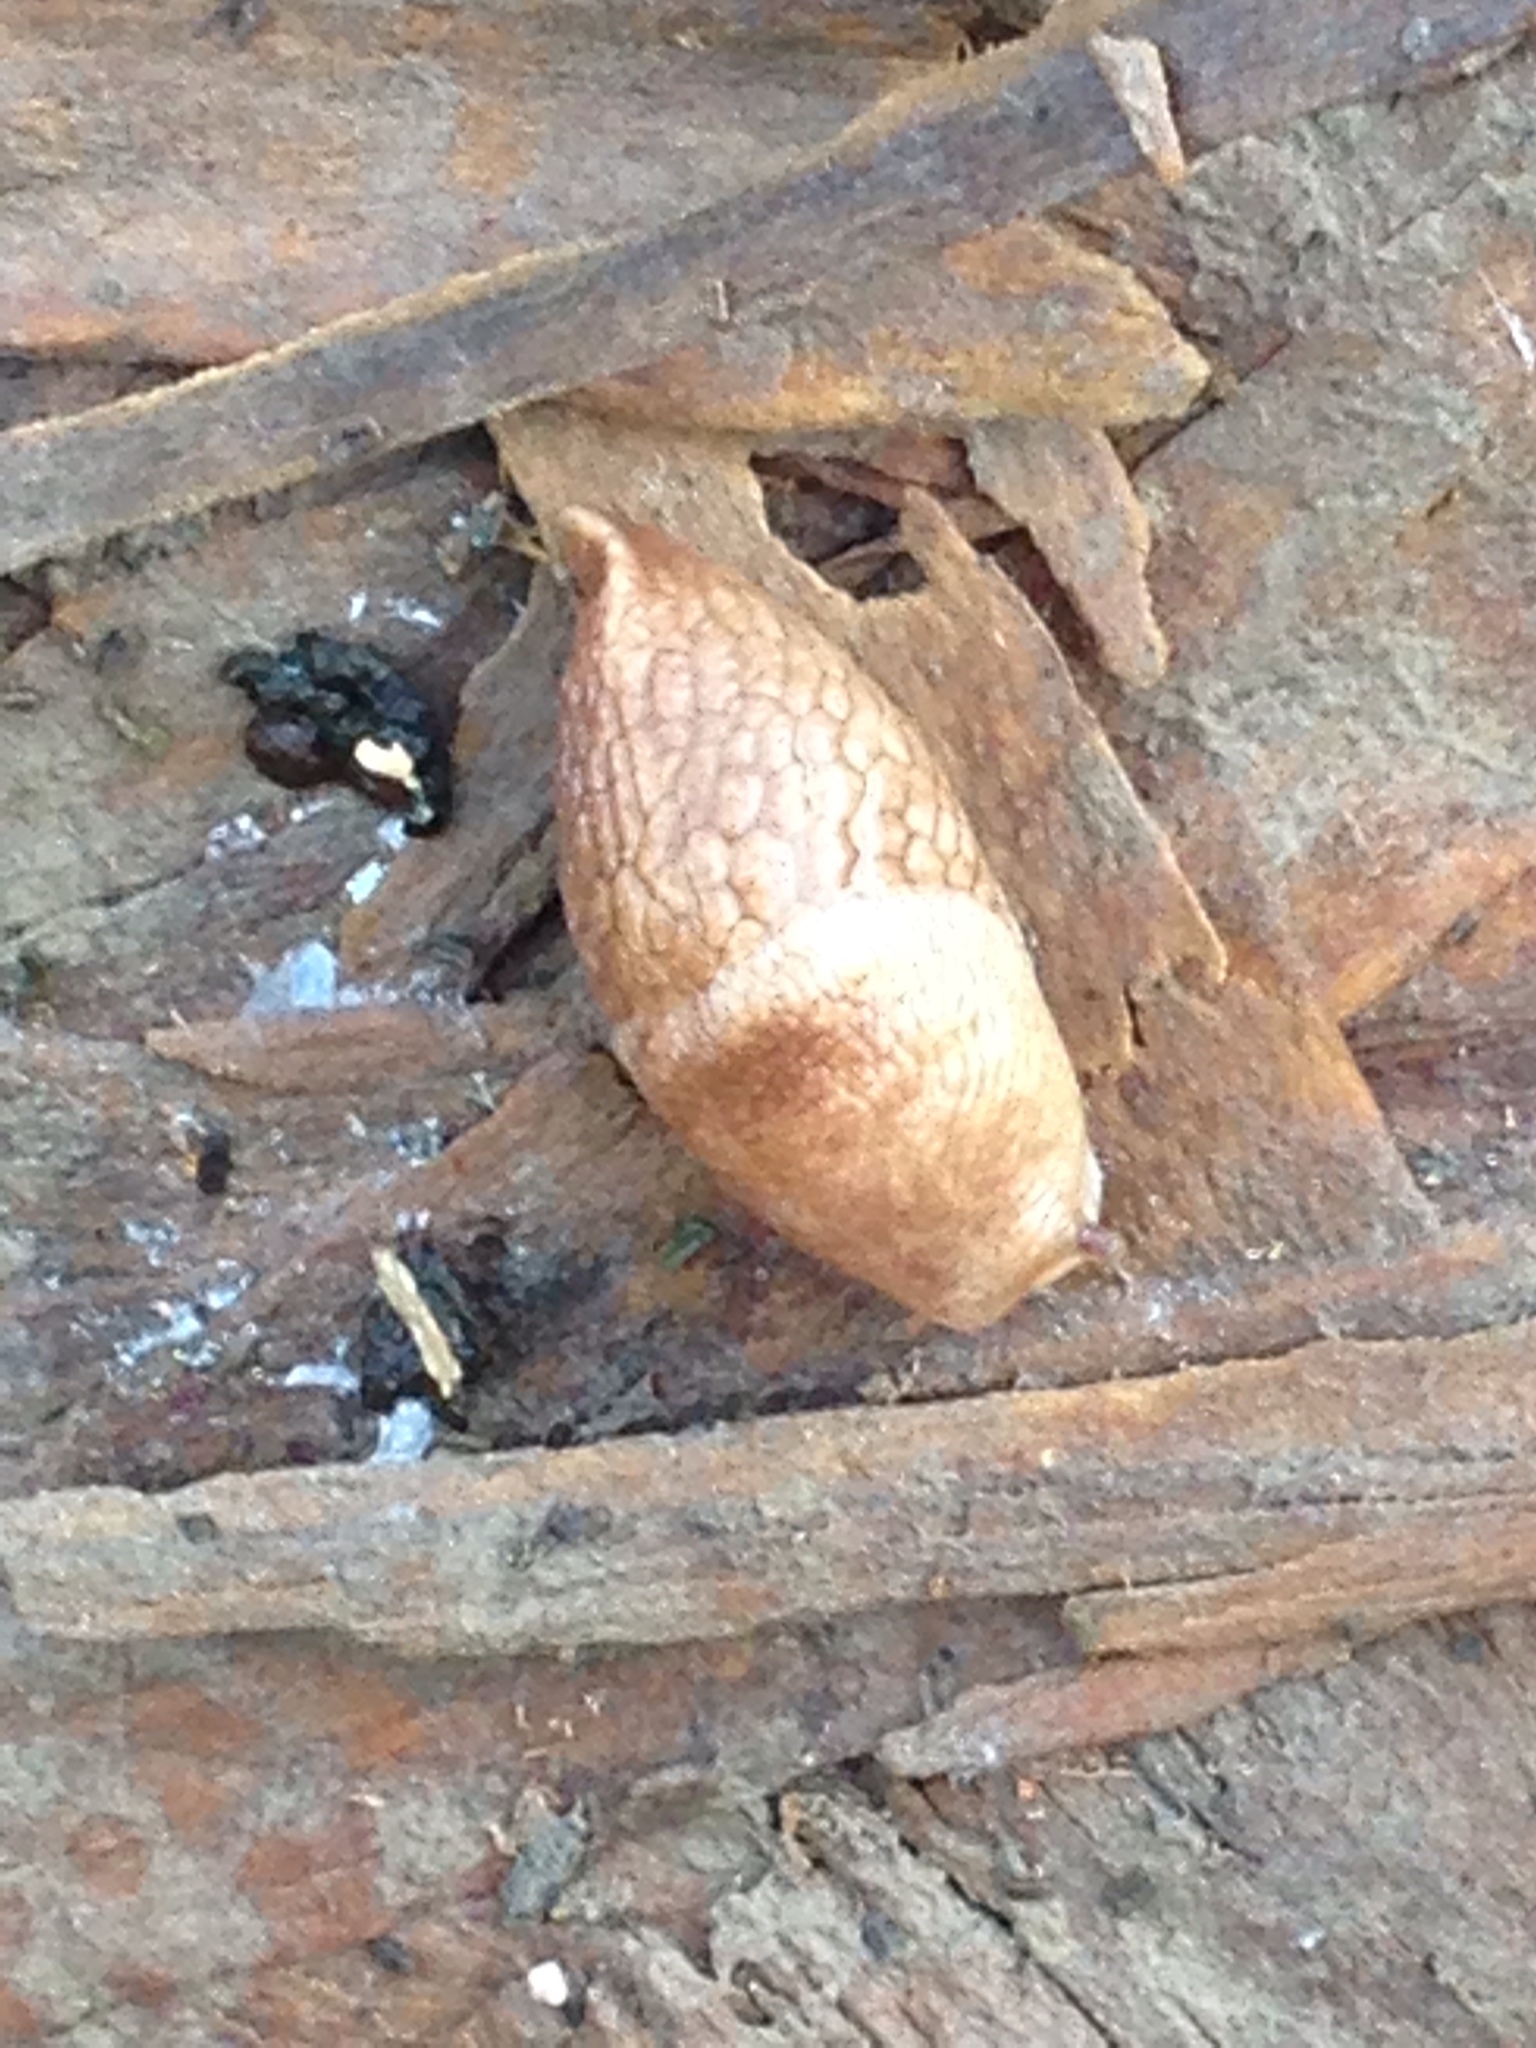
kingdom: Animalia
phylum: Mollusca
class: Gastropoda
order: Stylommatophora
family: Agriolimacidae
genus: Deroceras
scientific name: Deroceras reticulatum
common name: Gray field slug
